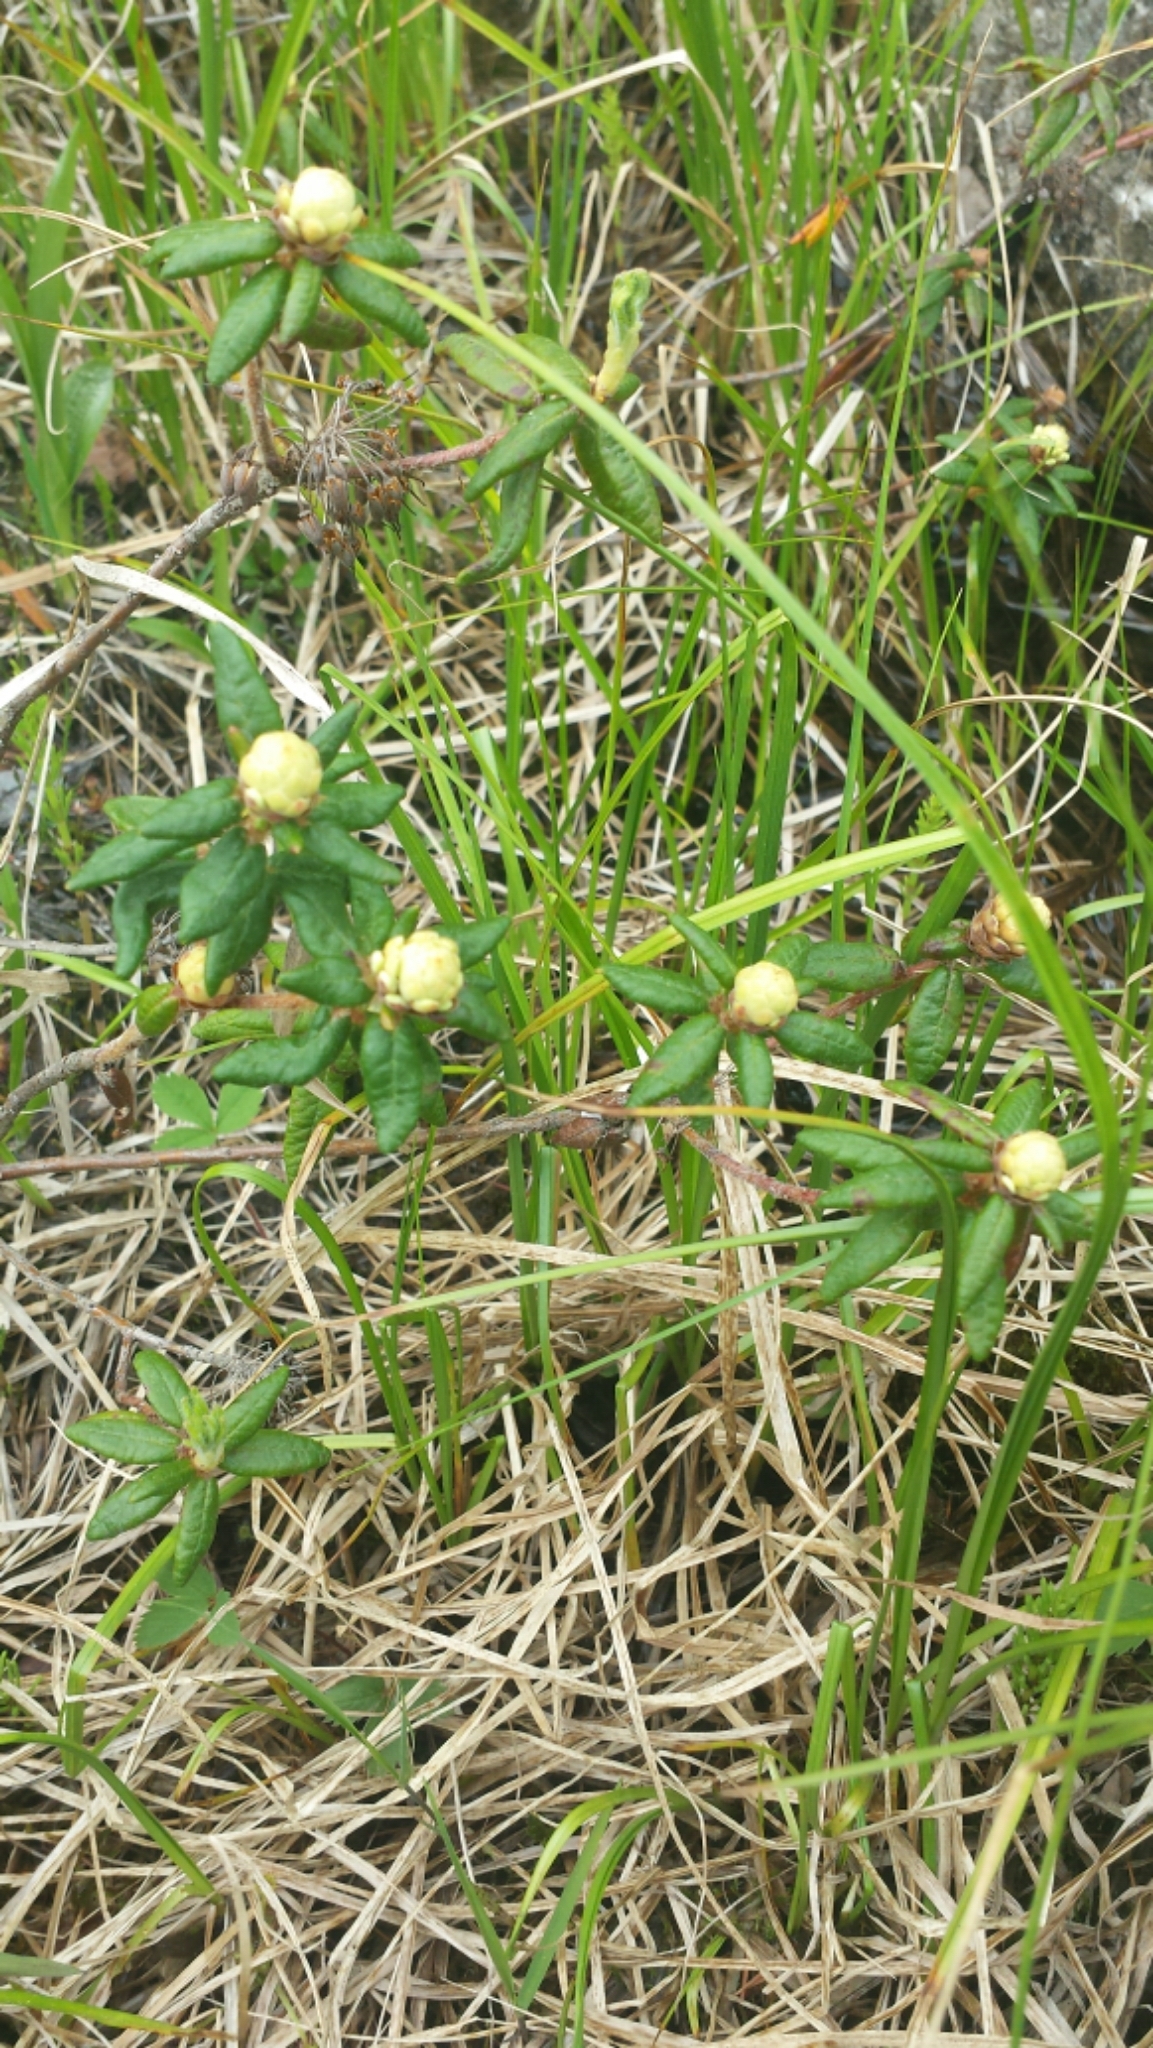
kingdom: Plantae
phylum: Tracheophyta
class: Magnoliopsida
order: Ericales
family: Ericaceae
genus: Rhododendron
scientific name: Rhododendron groenlandicum
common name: Bog labrador tea
